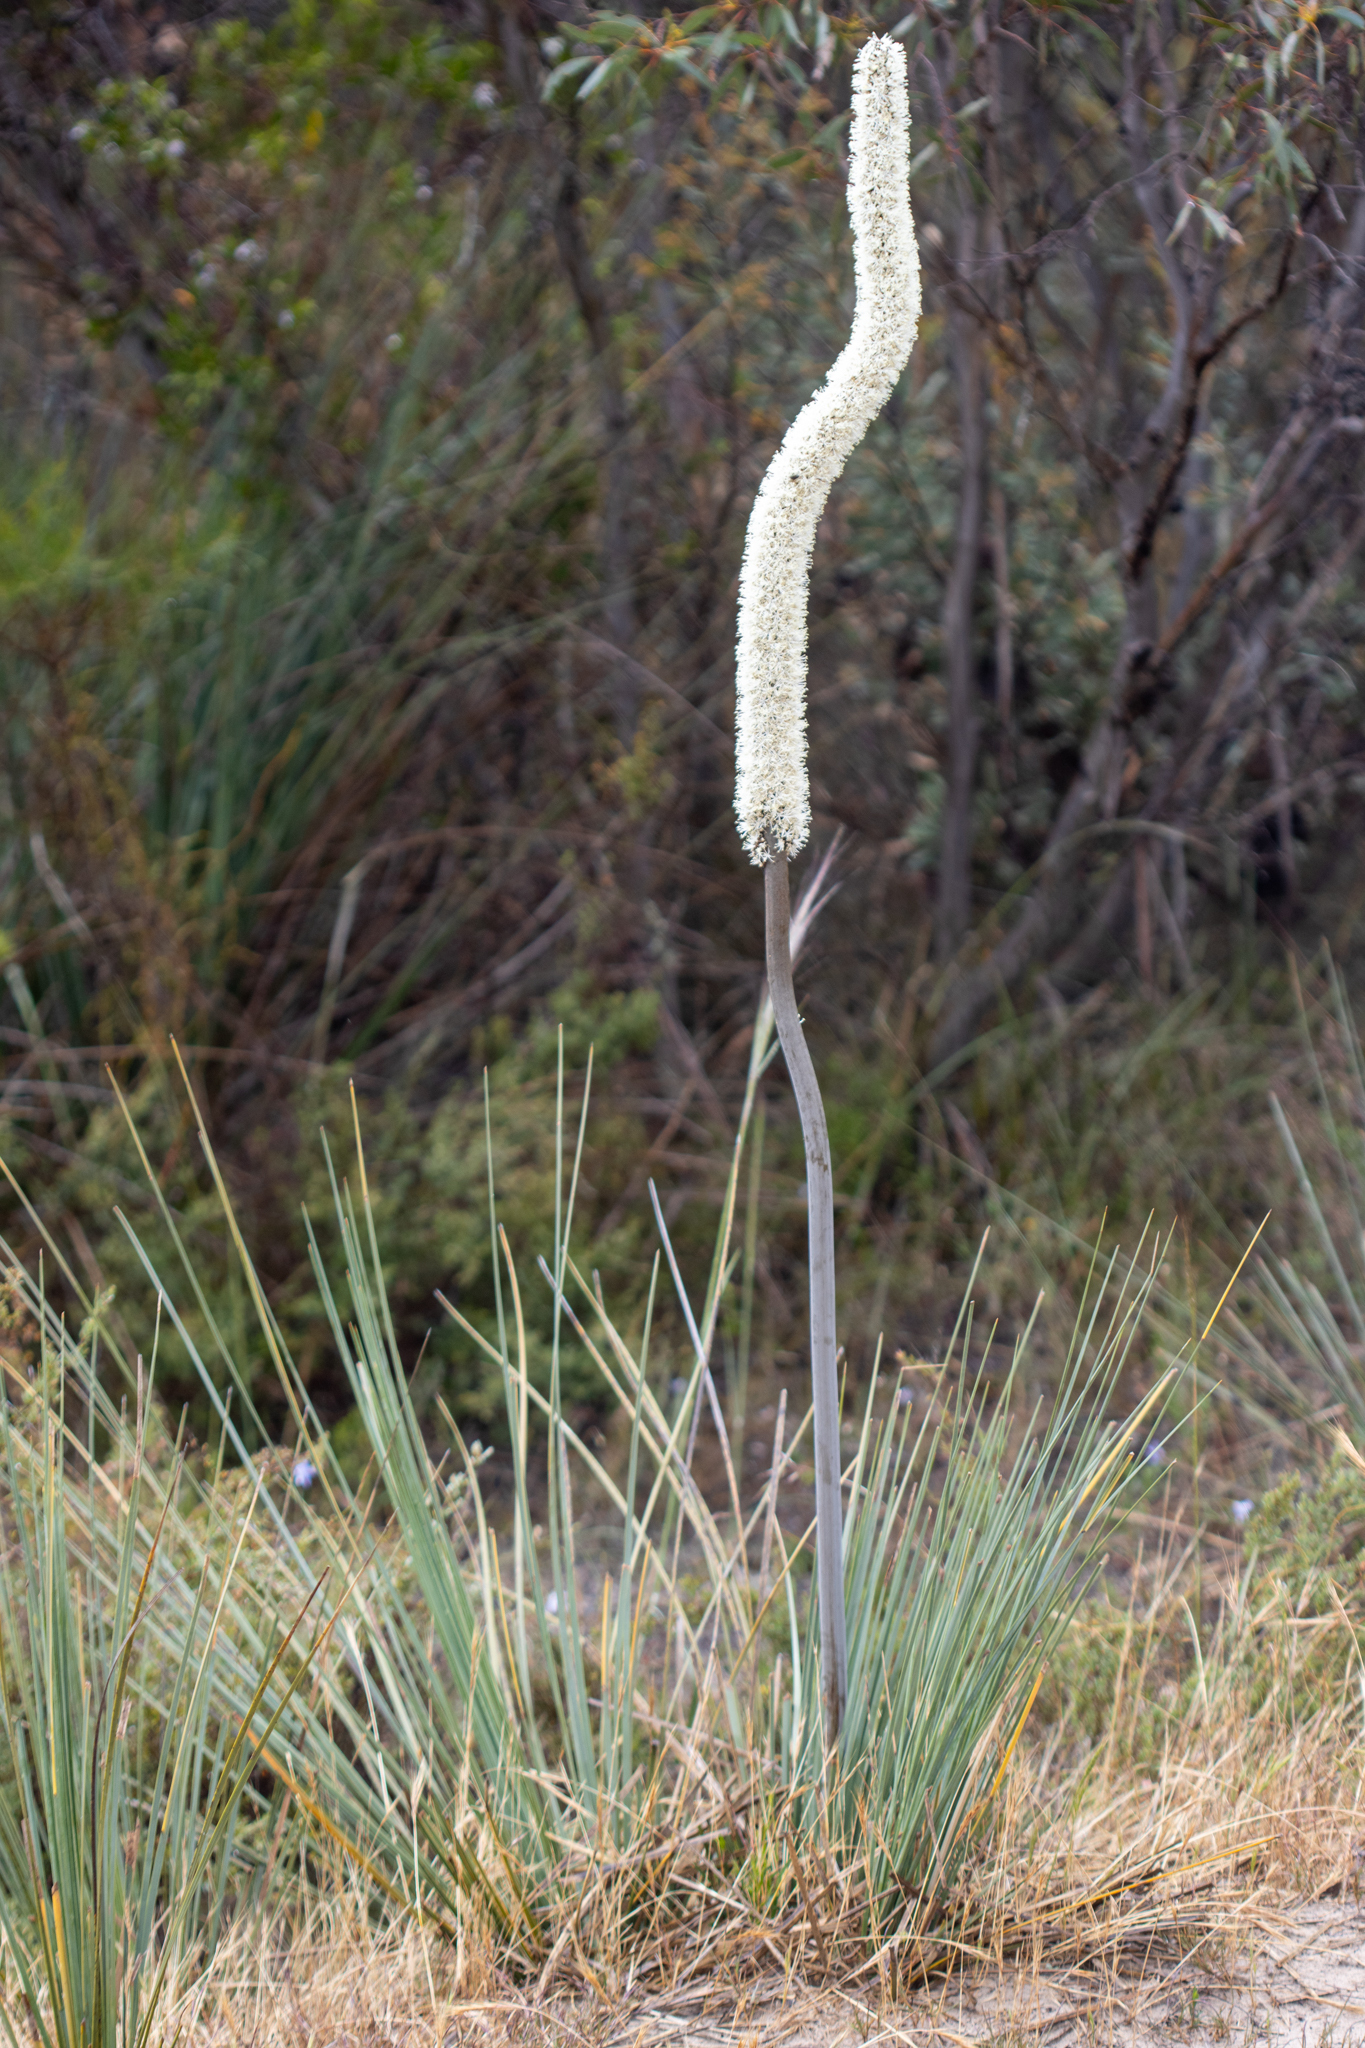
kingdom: Plantae
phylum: Tracheophyta
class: Liliopsida
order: Asparagales
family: Asphodelaceae
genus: Xanthorrhoea
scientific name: Xanthorrhoea caespitosa
